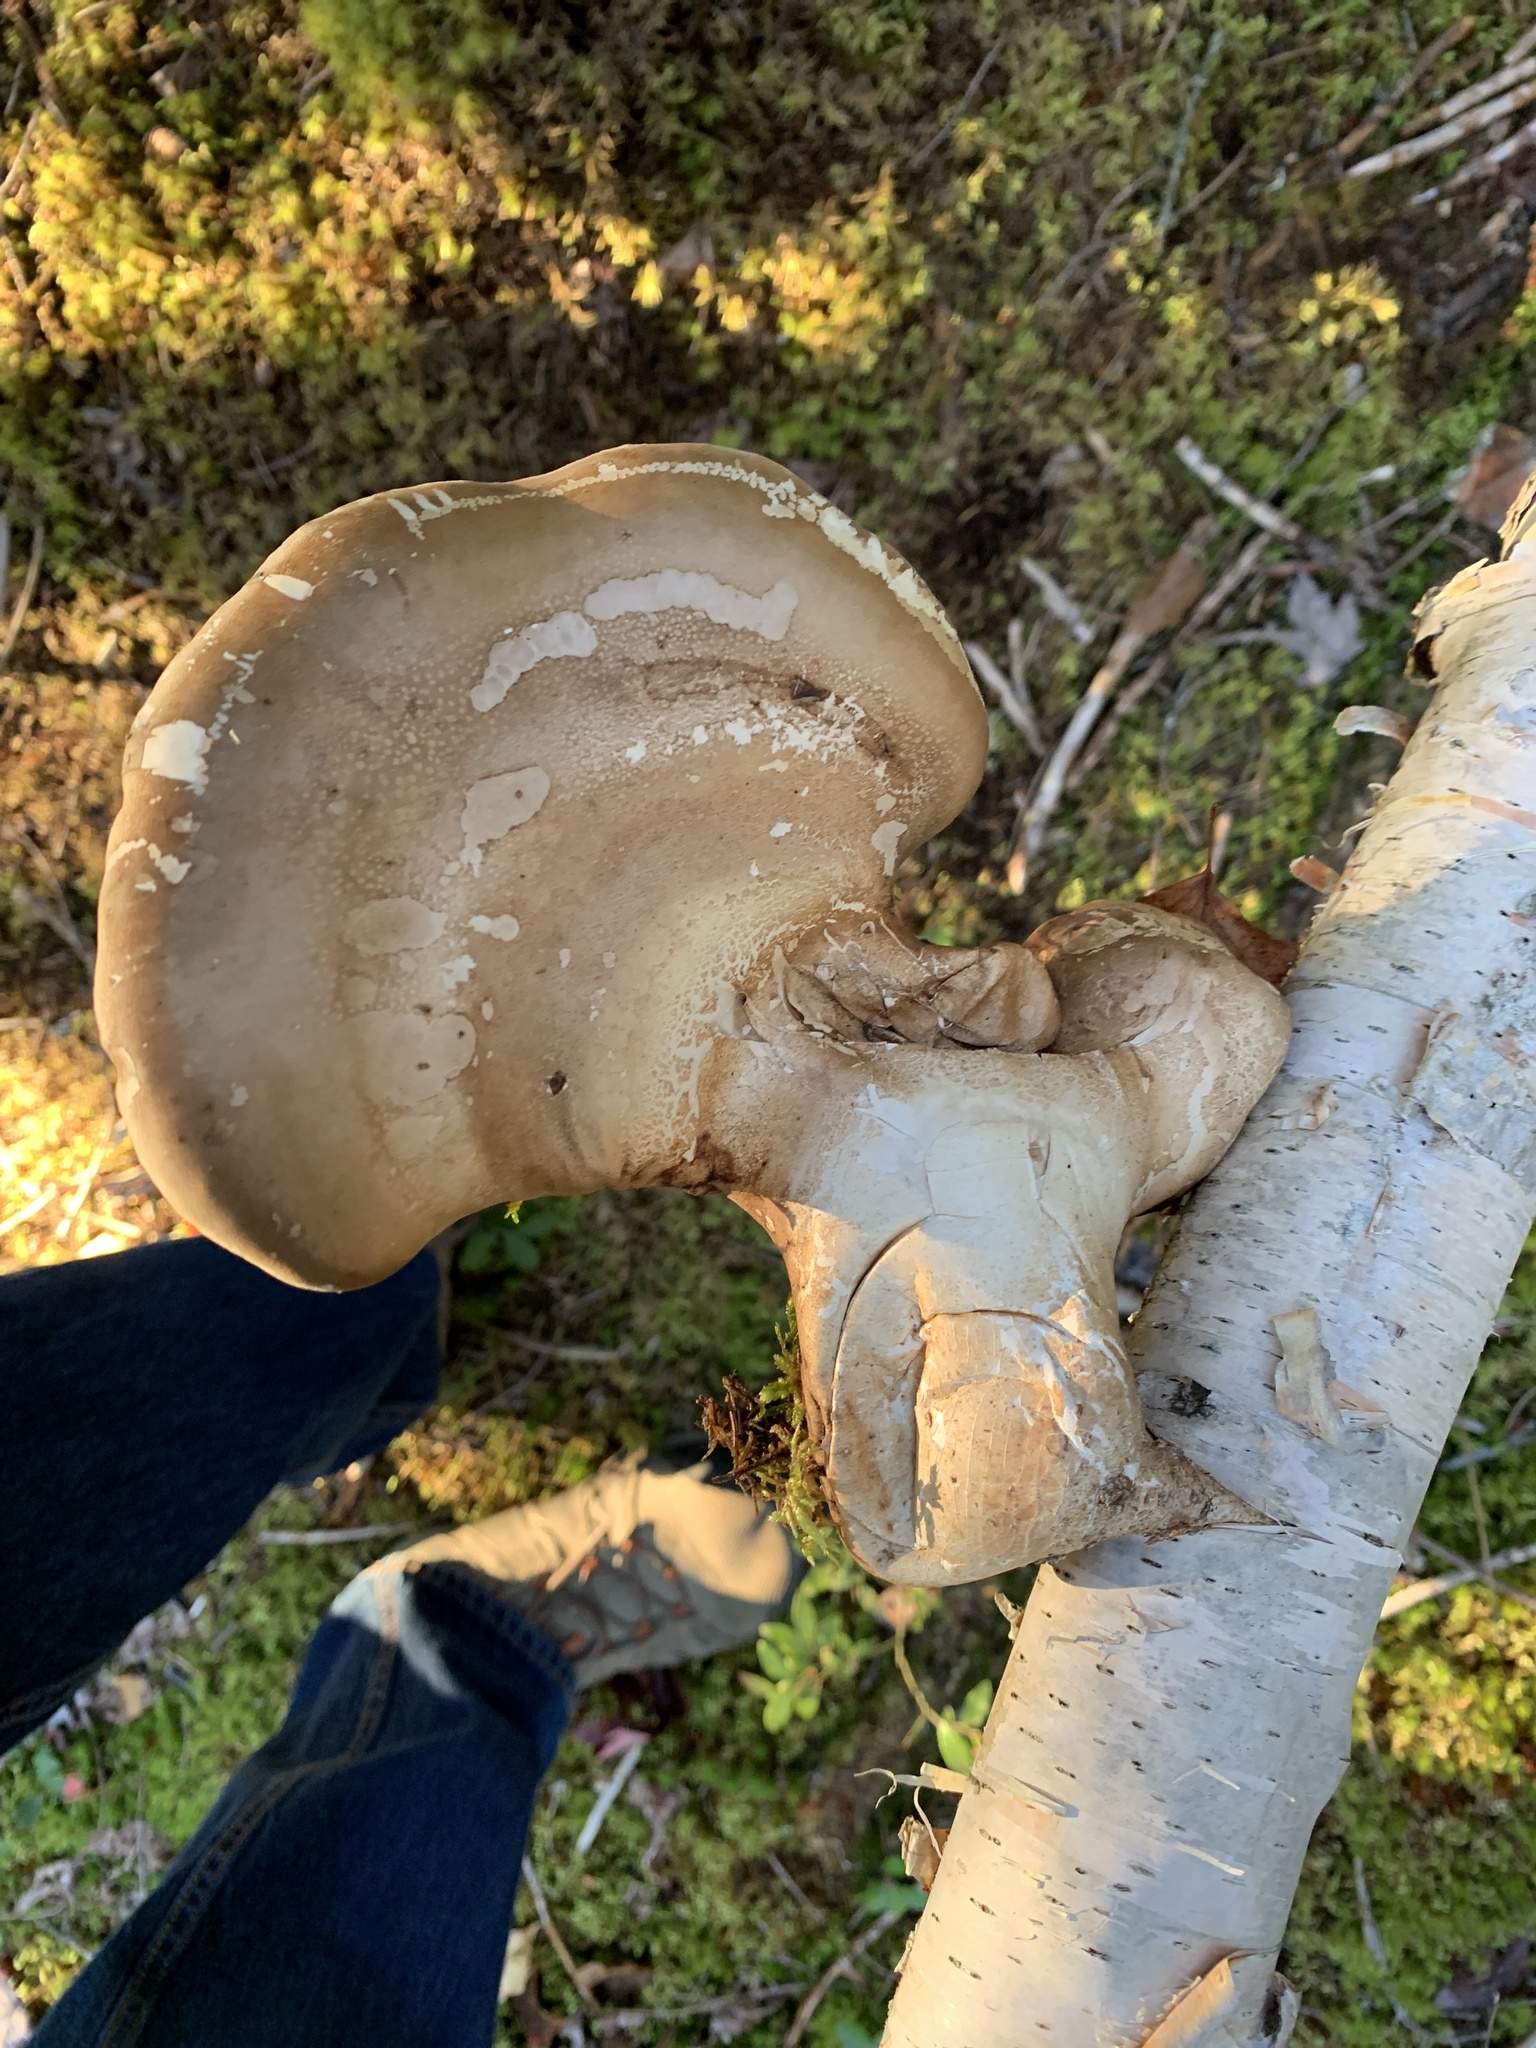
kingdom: Fungi
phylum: Basidiomycota
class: Agaricomycetes
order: Polyporales
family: Fomitopsidaceae
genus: Fomitopsis
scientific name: Fomitopsis betulina
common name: Birch polypore
